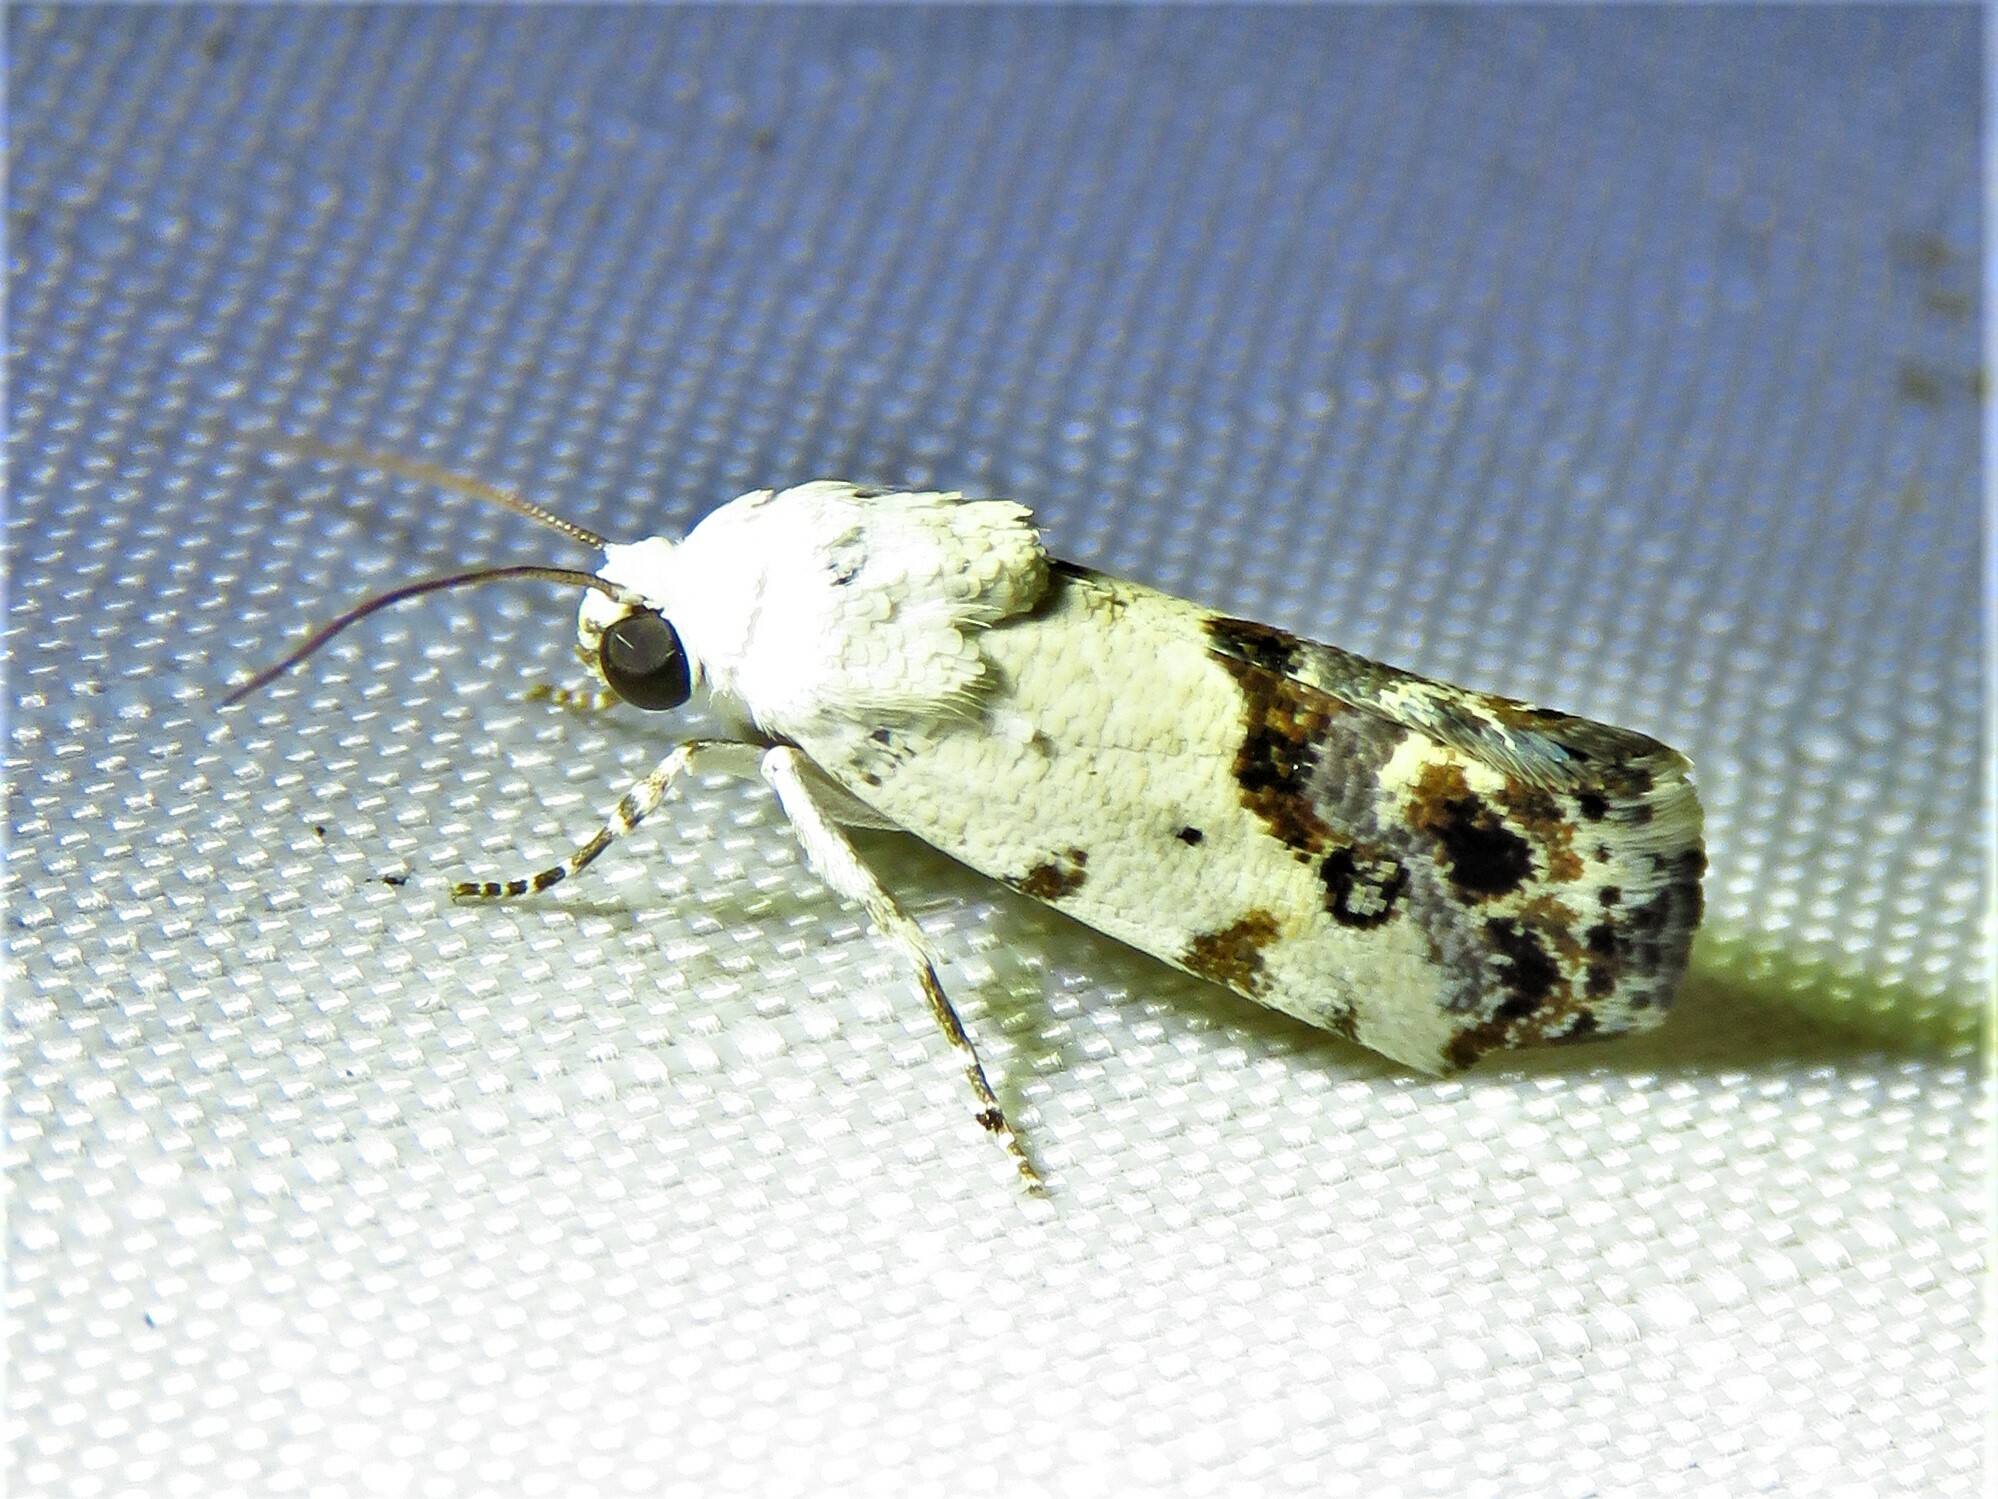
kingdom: Animalia
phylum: Arthropoda
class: Insecta
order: Lepidoptera
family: Noctuidae
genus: Acontia
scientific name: Acontia phecolisca
